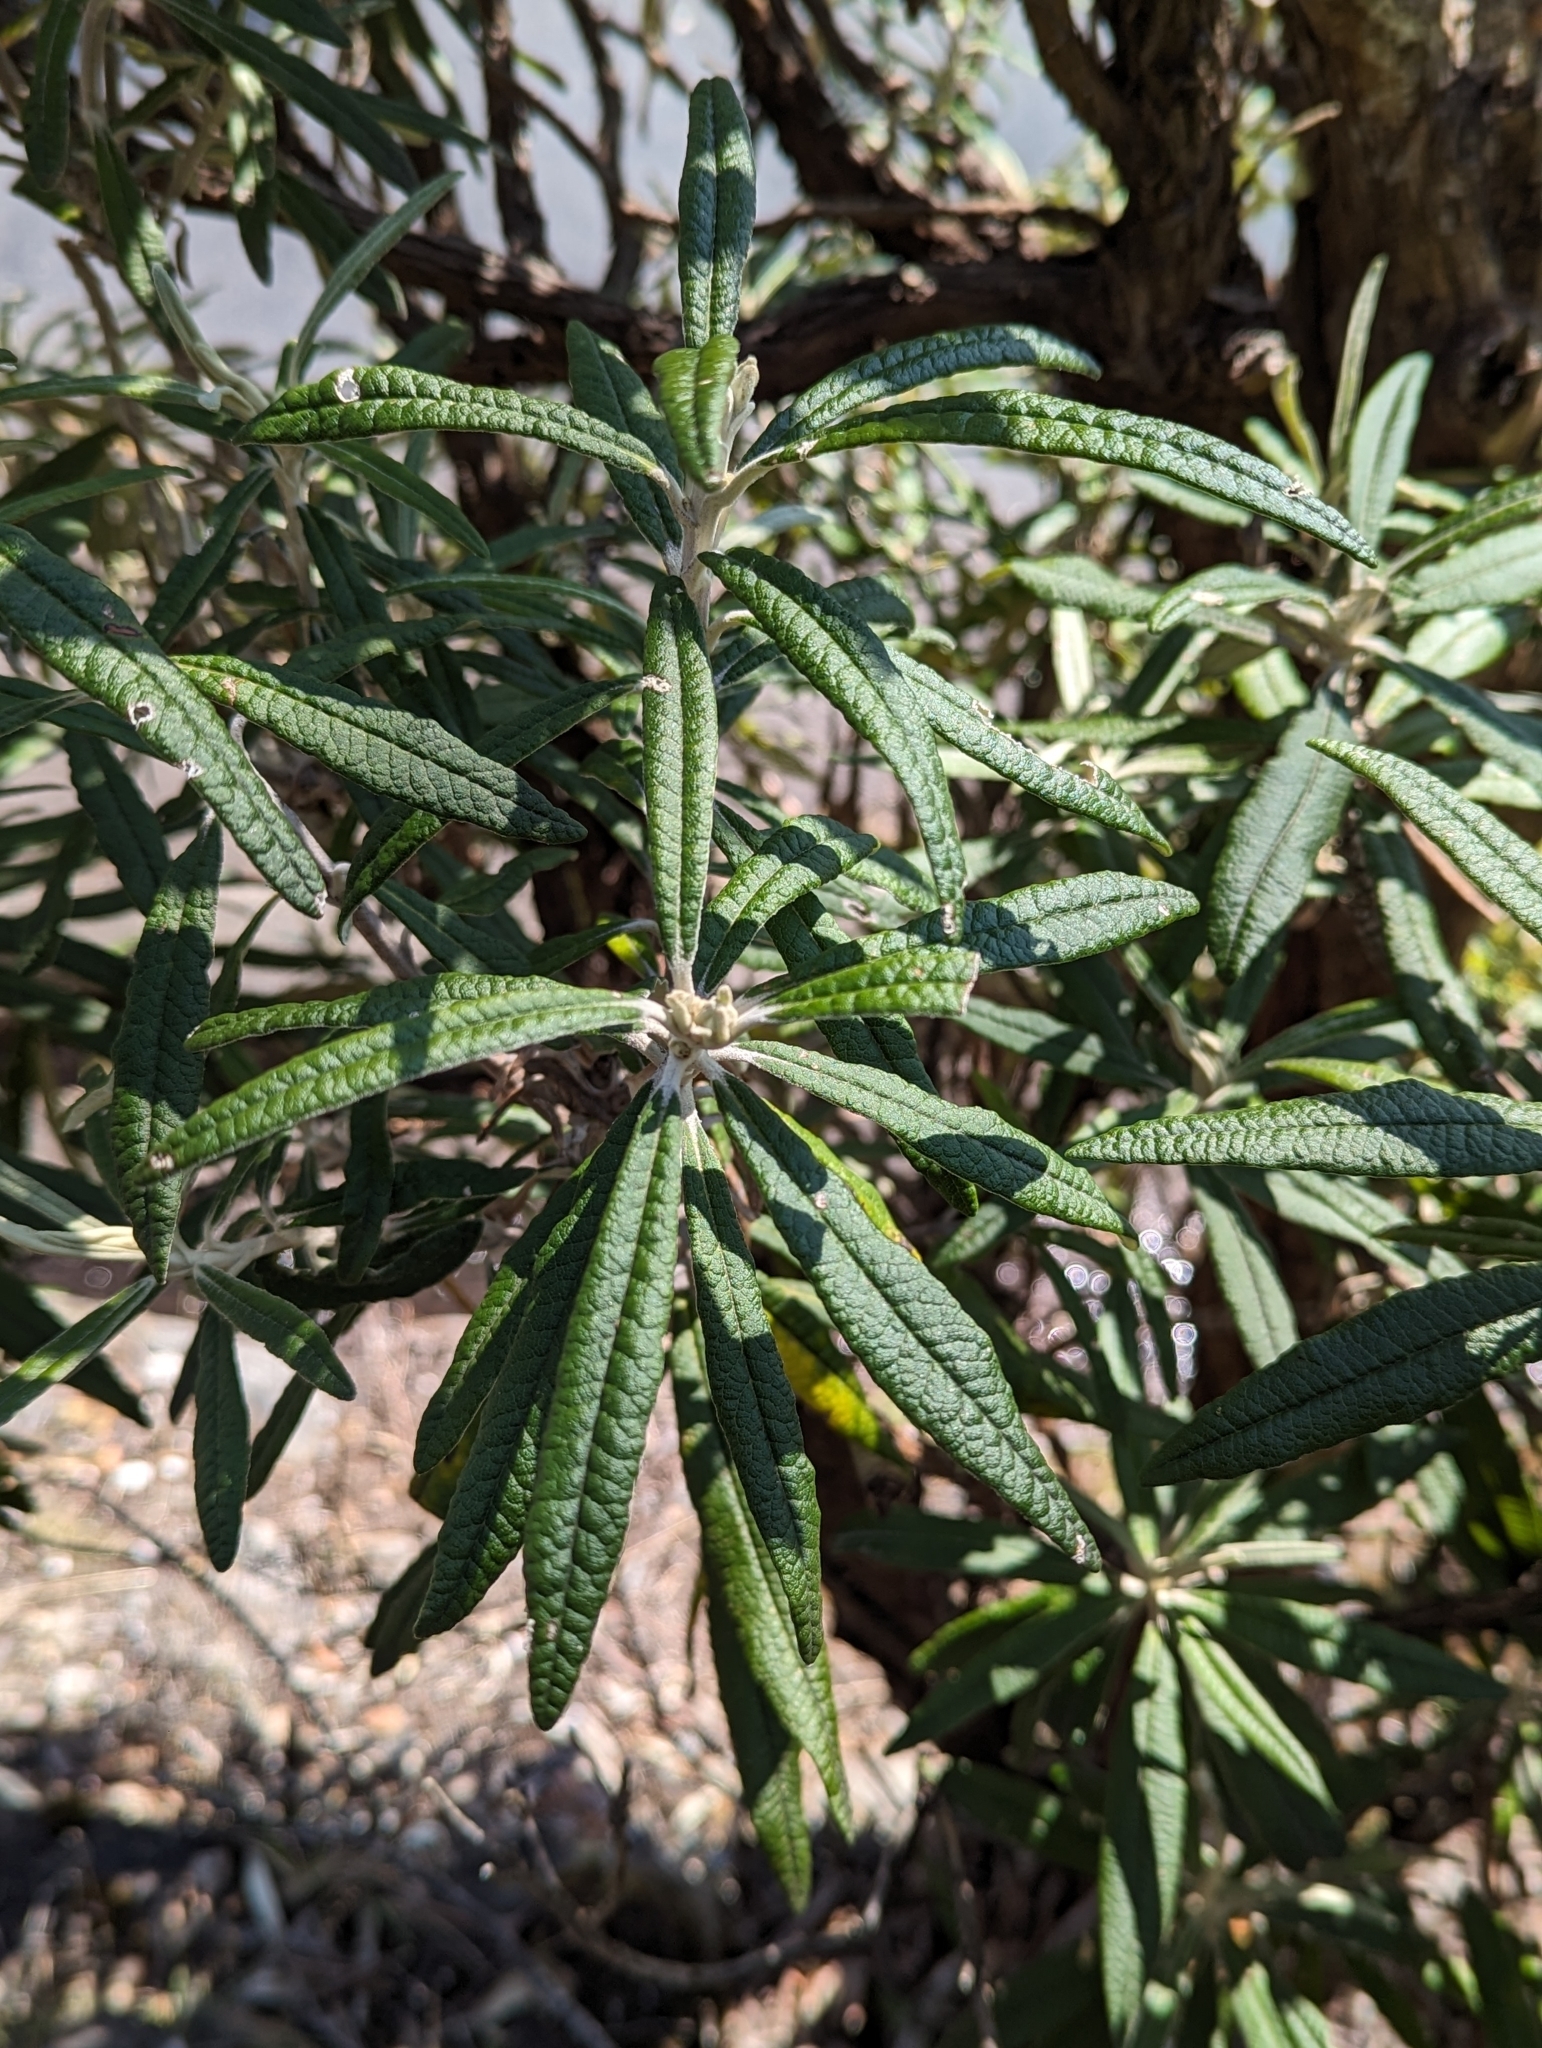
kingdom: Plantae
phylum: Tracheophyta
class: Magnoliopsida
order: Asterales
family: Asteraceae
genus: Bedfordia
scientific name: Bedfordia salicina
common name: Blanketleaf
